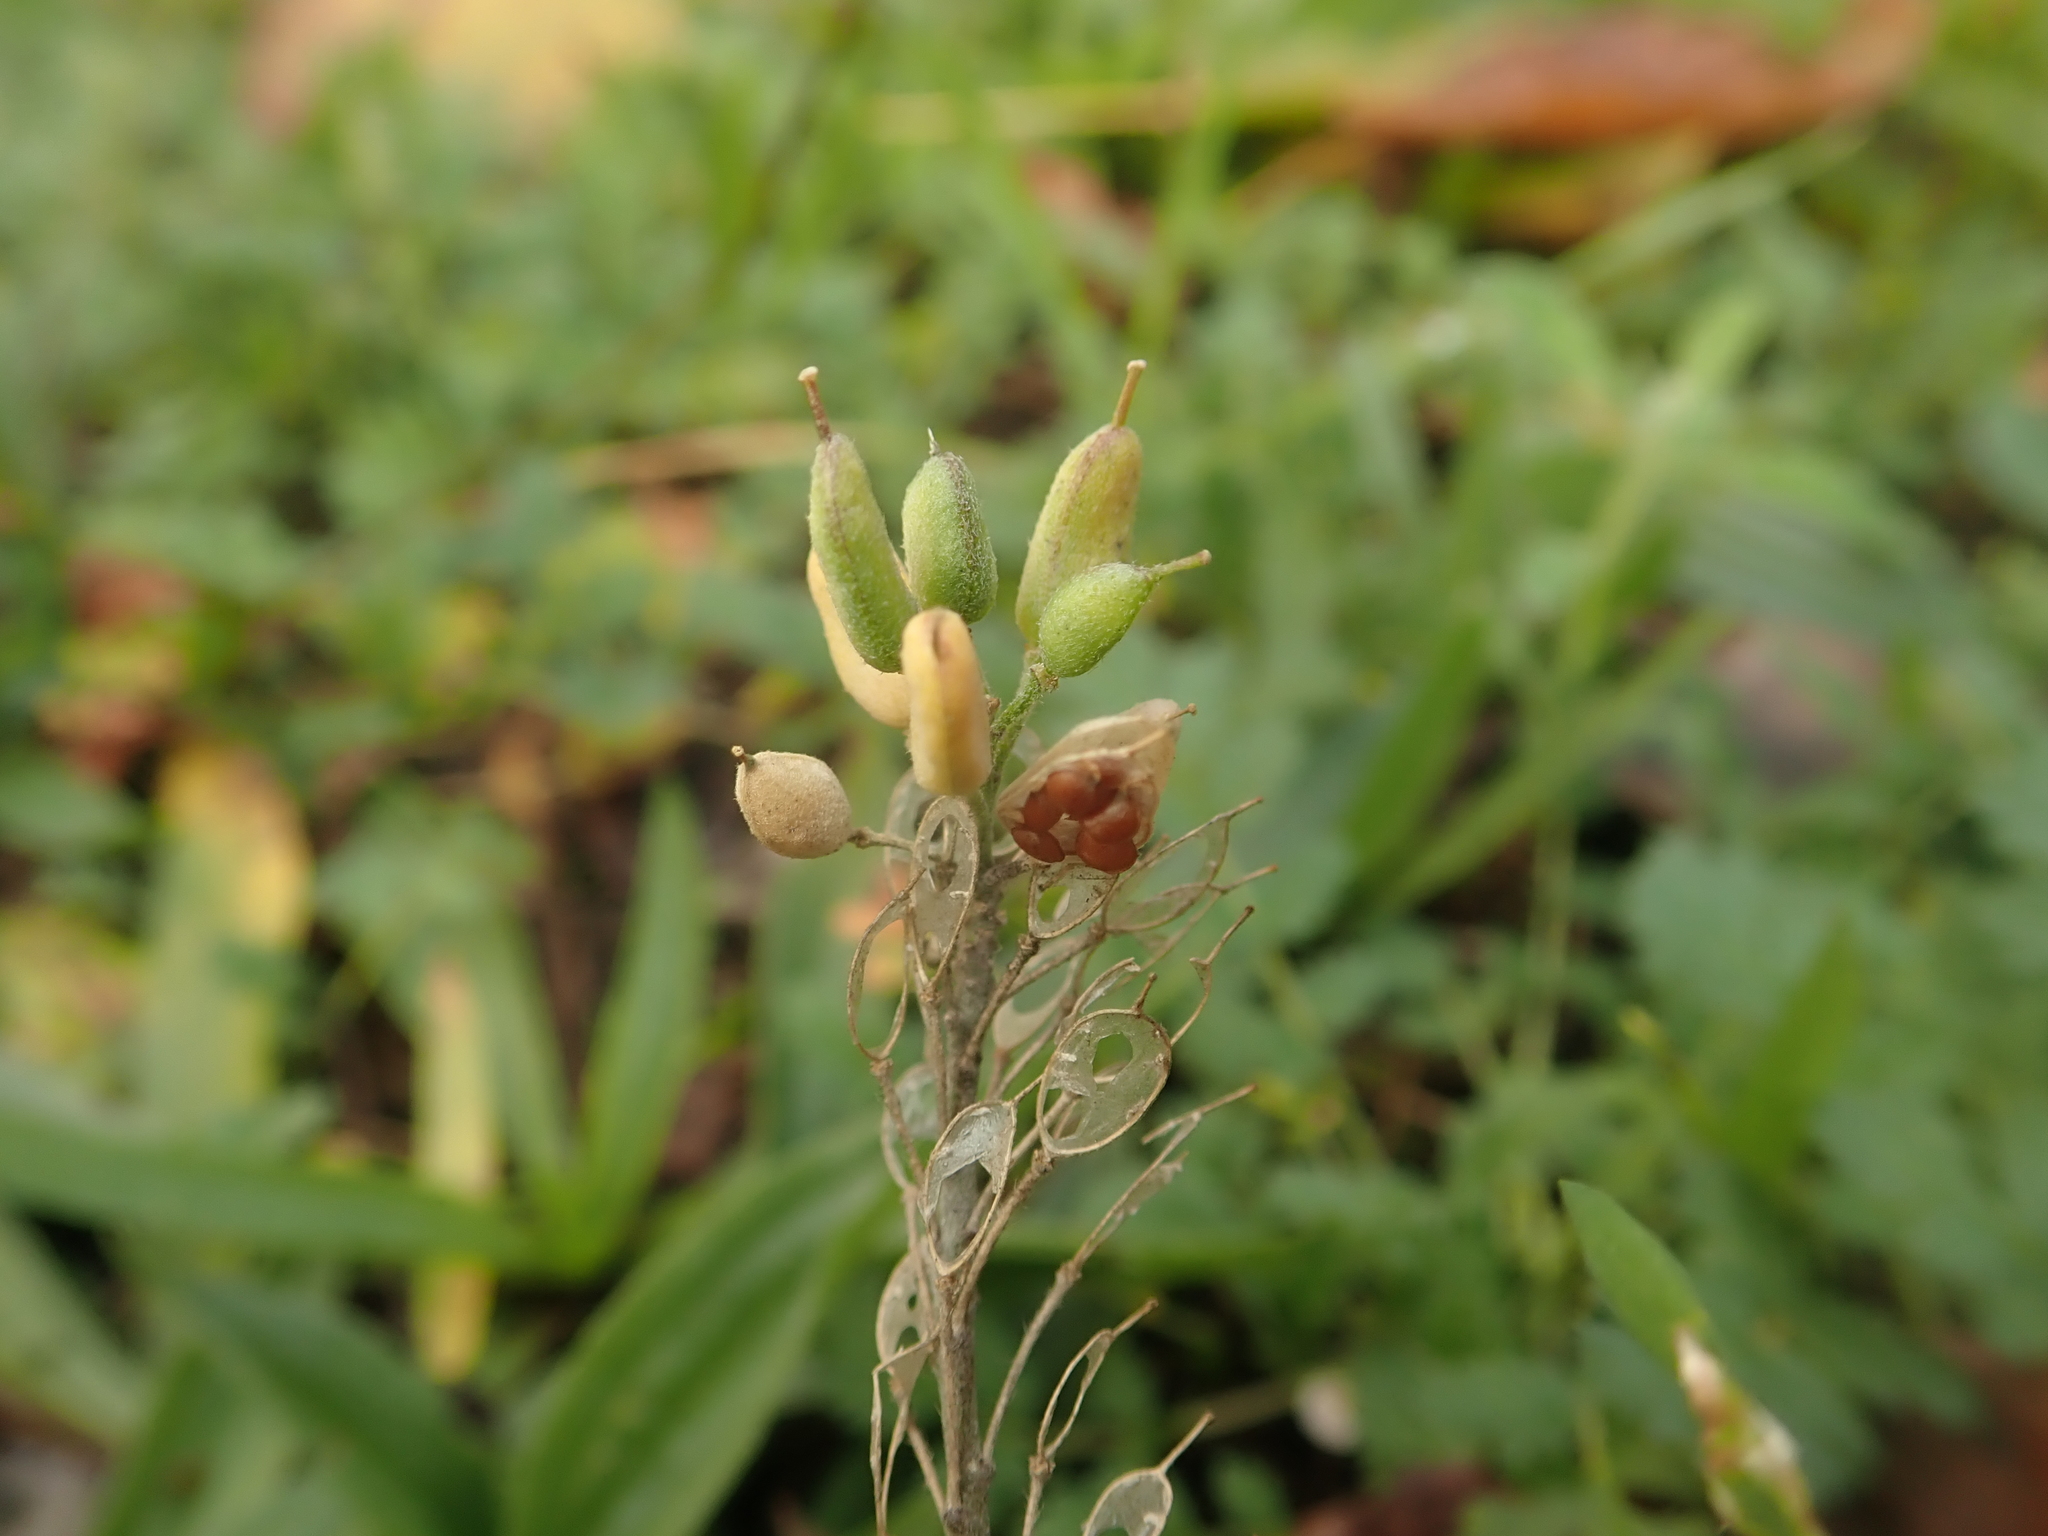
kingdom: Plantae
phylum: Tracheophyta
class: Magnoliopsida
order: Brassicales
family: Brassicaceae
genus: Berteroa
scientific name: Berteroa incana
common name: Hoary alison
